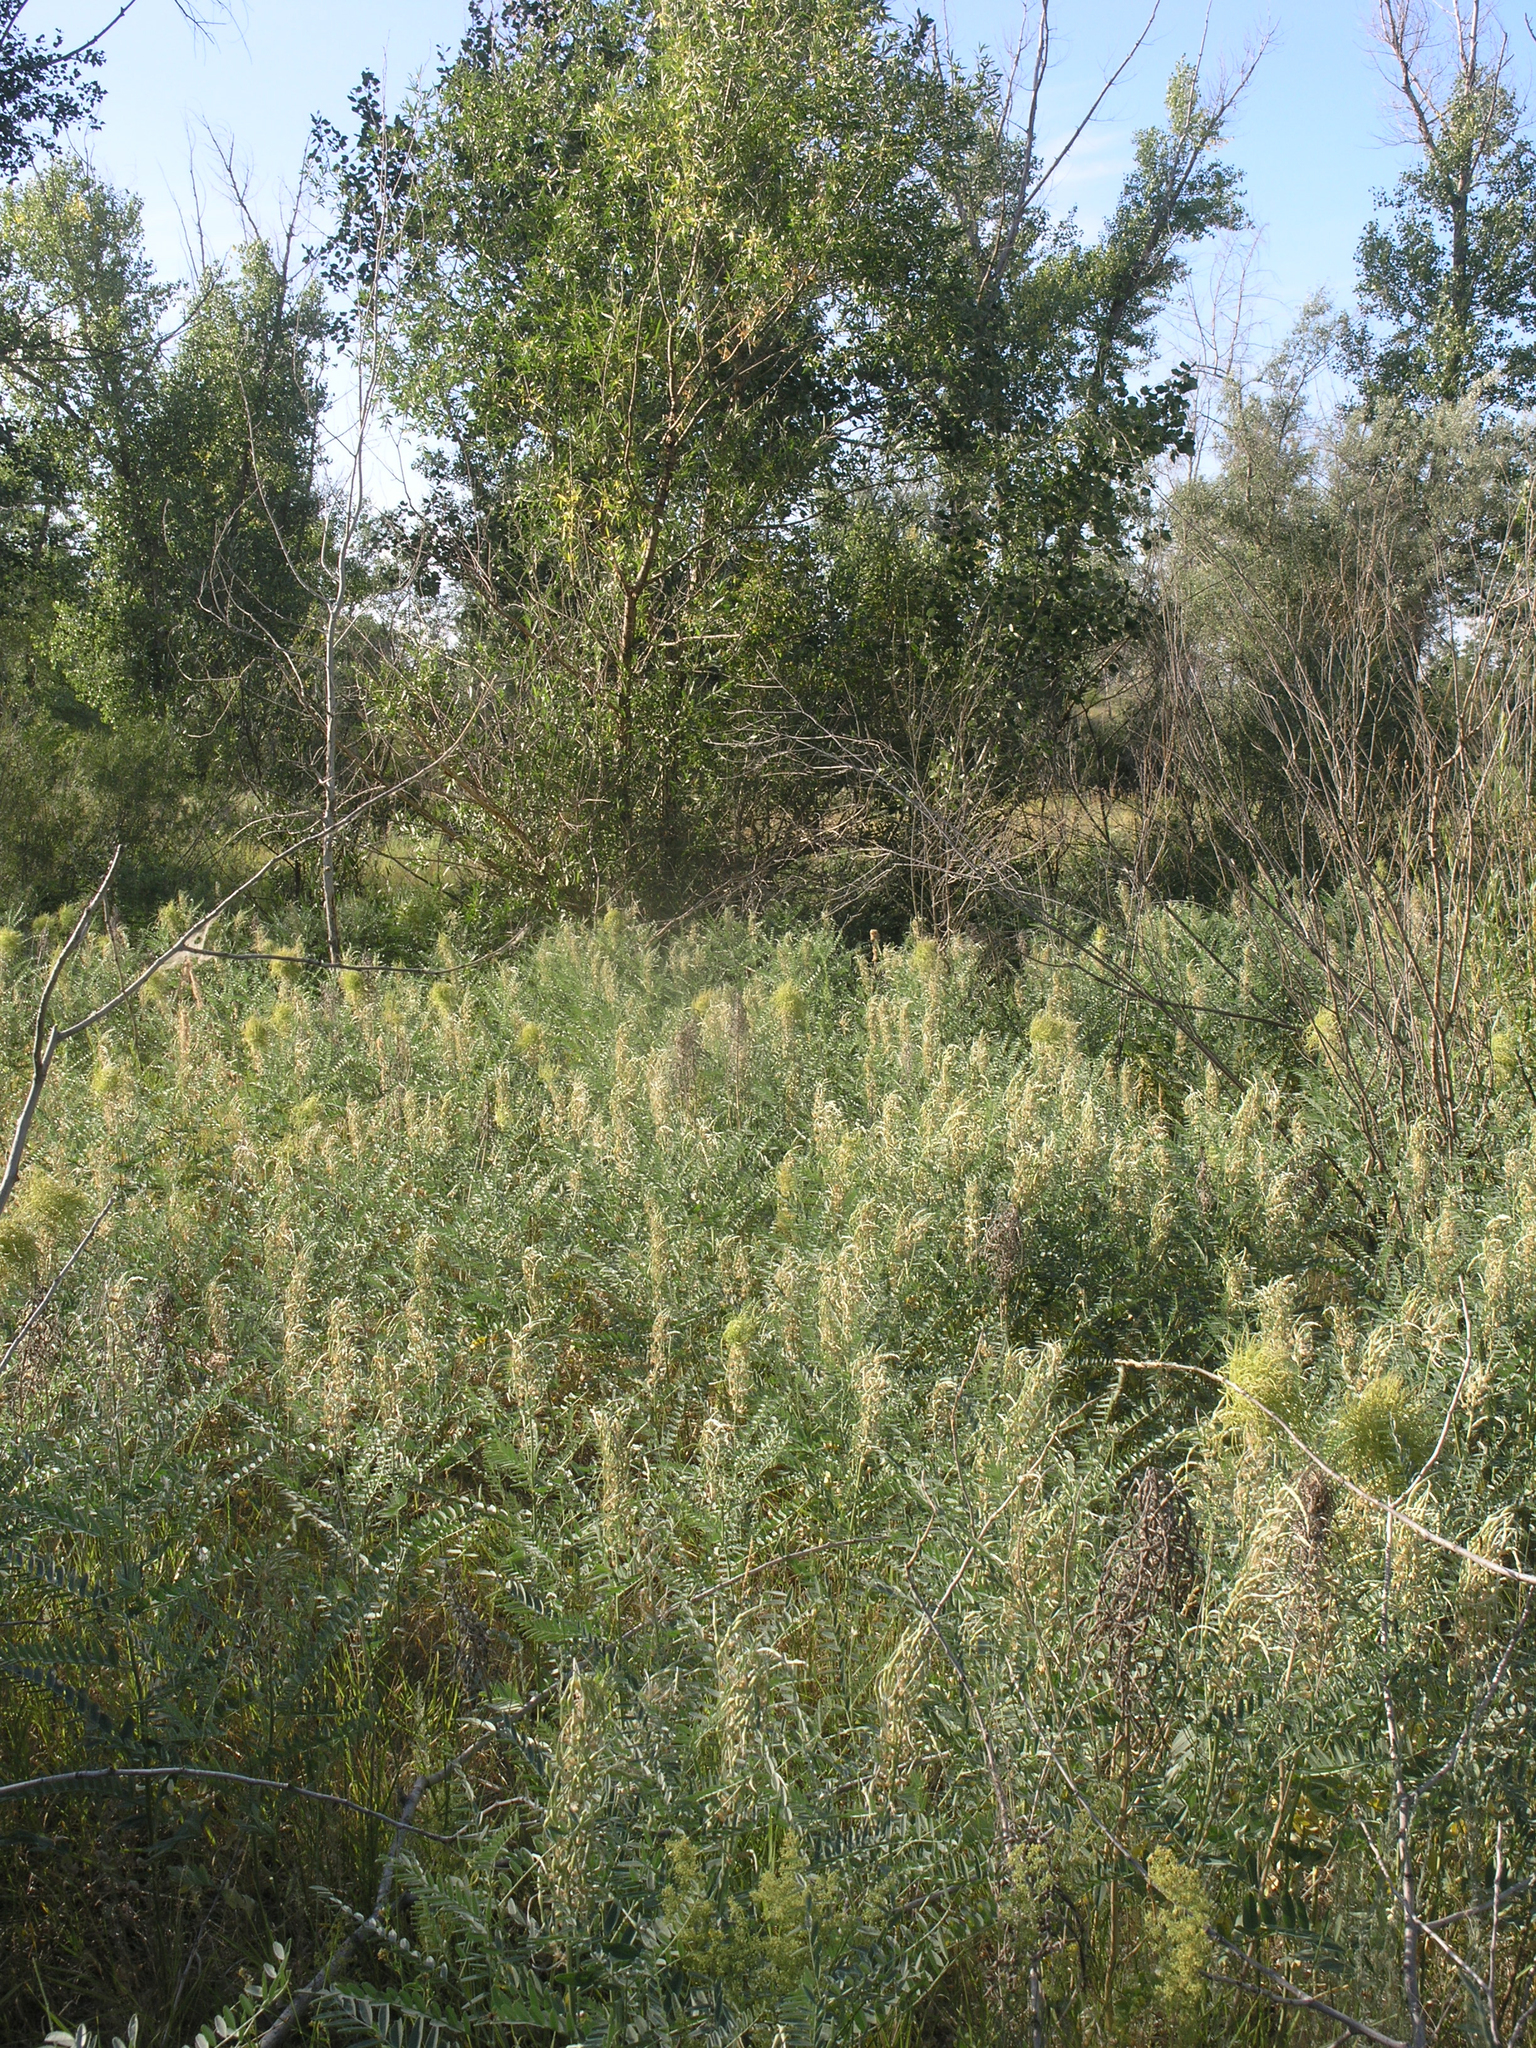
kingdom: Plantae
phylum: Tracheophyta
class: Magnoliopsida
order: Fabales
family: Fabaceae
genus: Sophora
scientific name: Sophora alopecuroides
